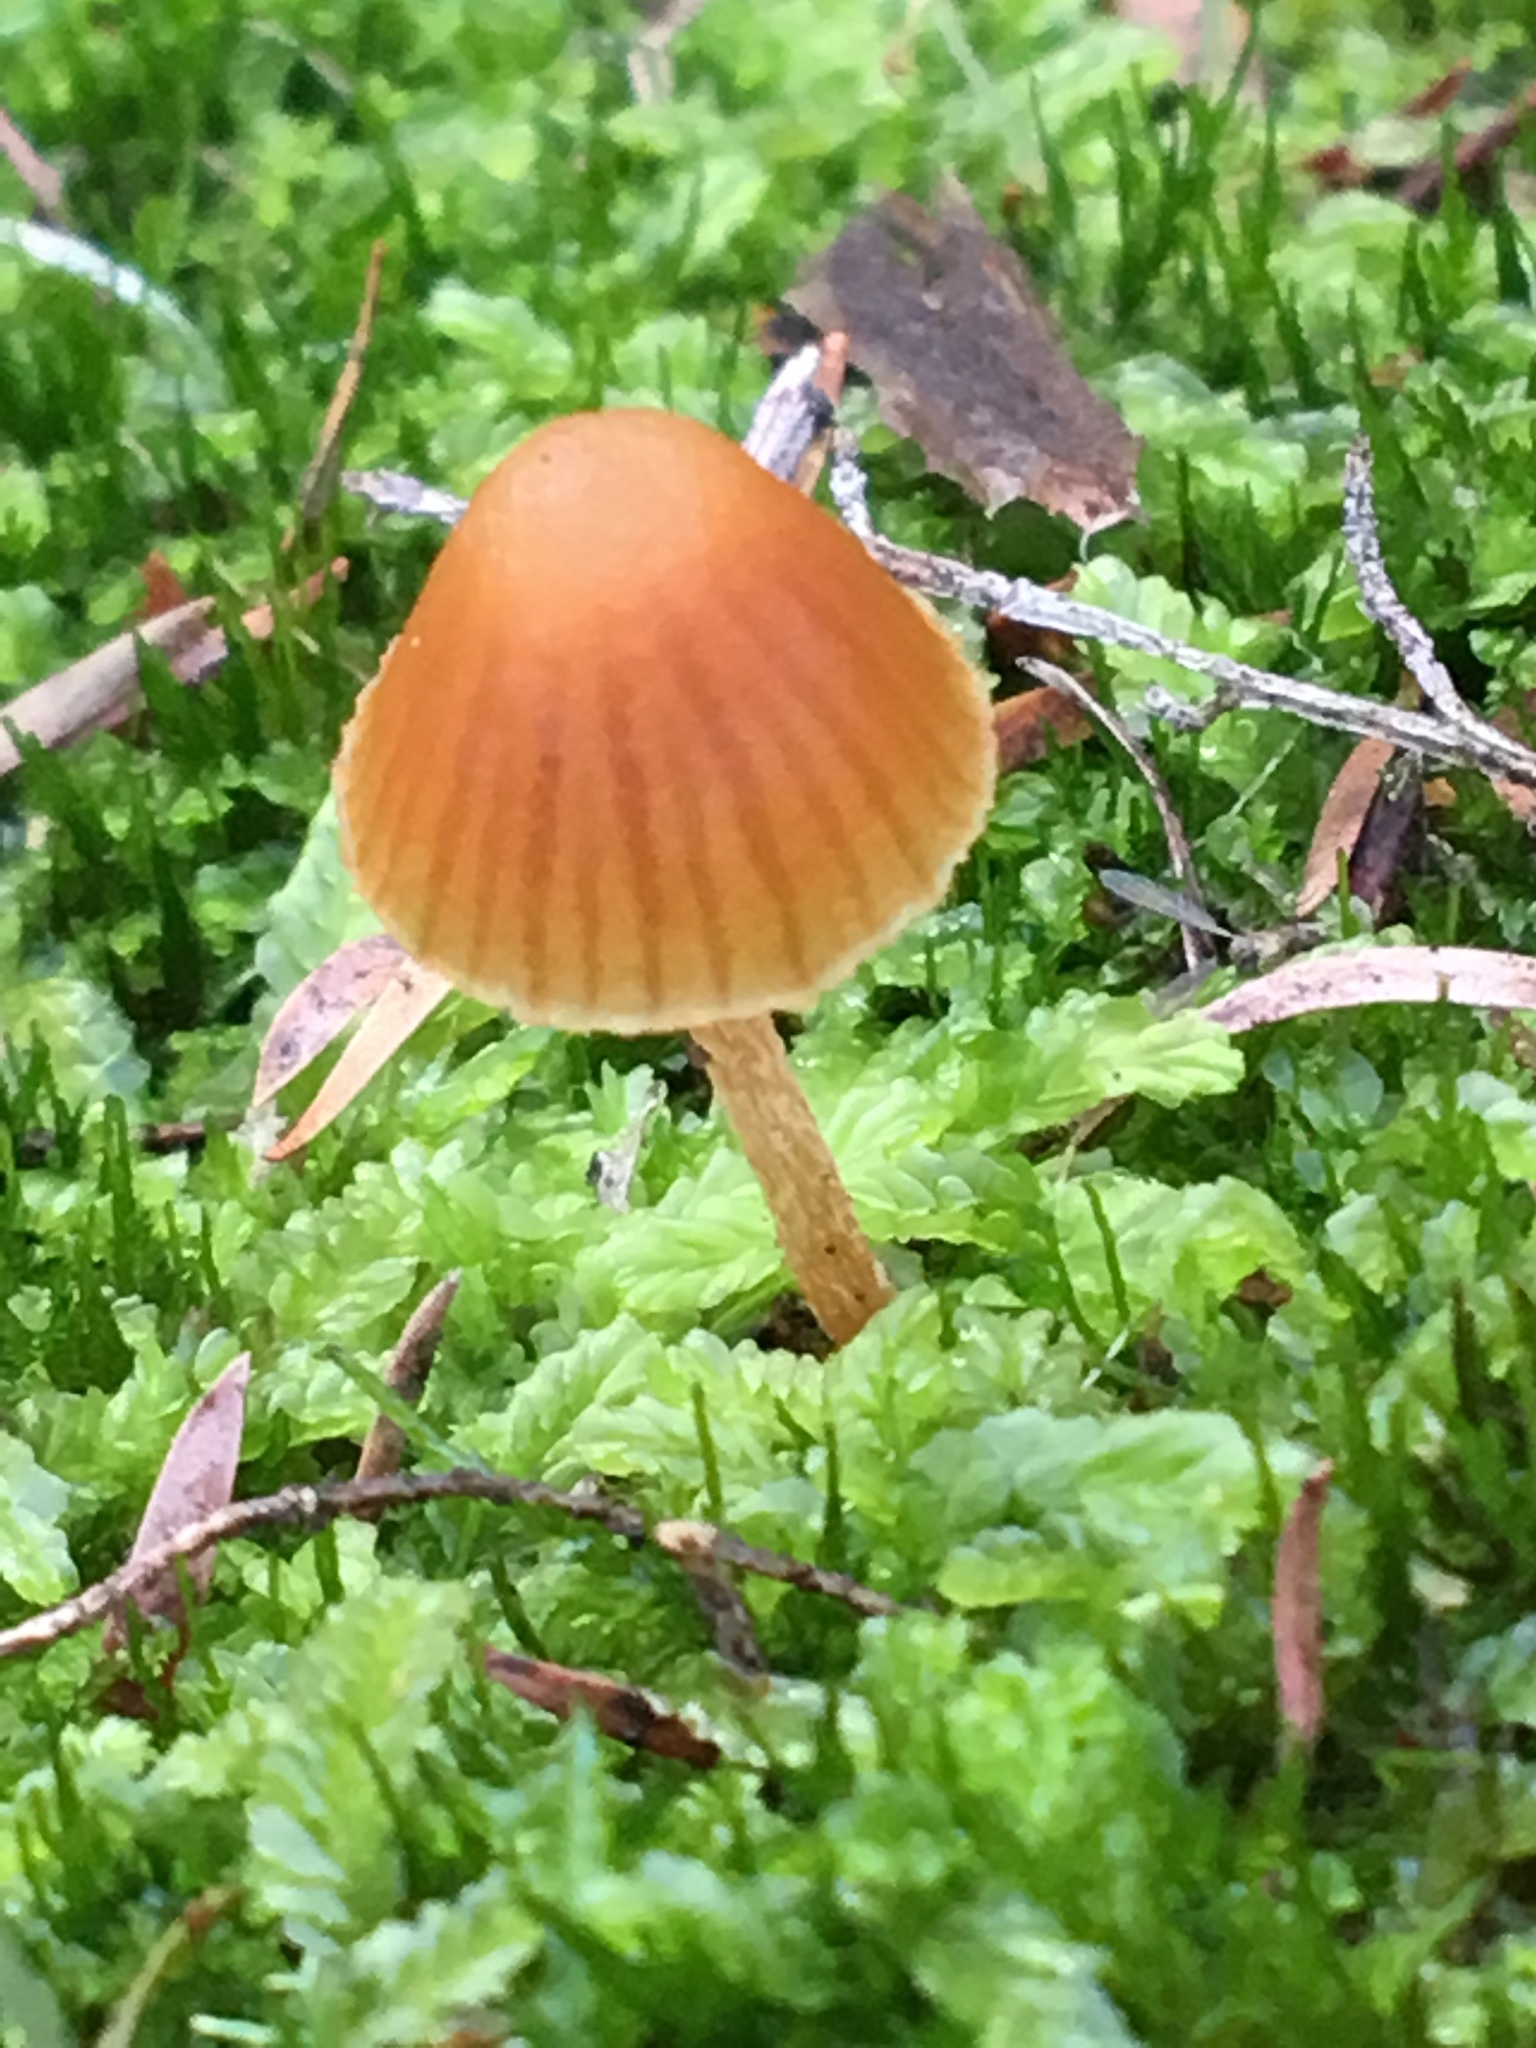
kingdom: Fungi
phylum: Basidiomycota
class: Agaricomycetes
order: Agaricales
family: Hymenogastraceae
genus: Galerina
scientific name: Galerina hypnorum
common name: Moss bell
